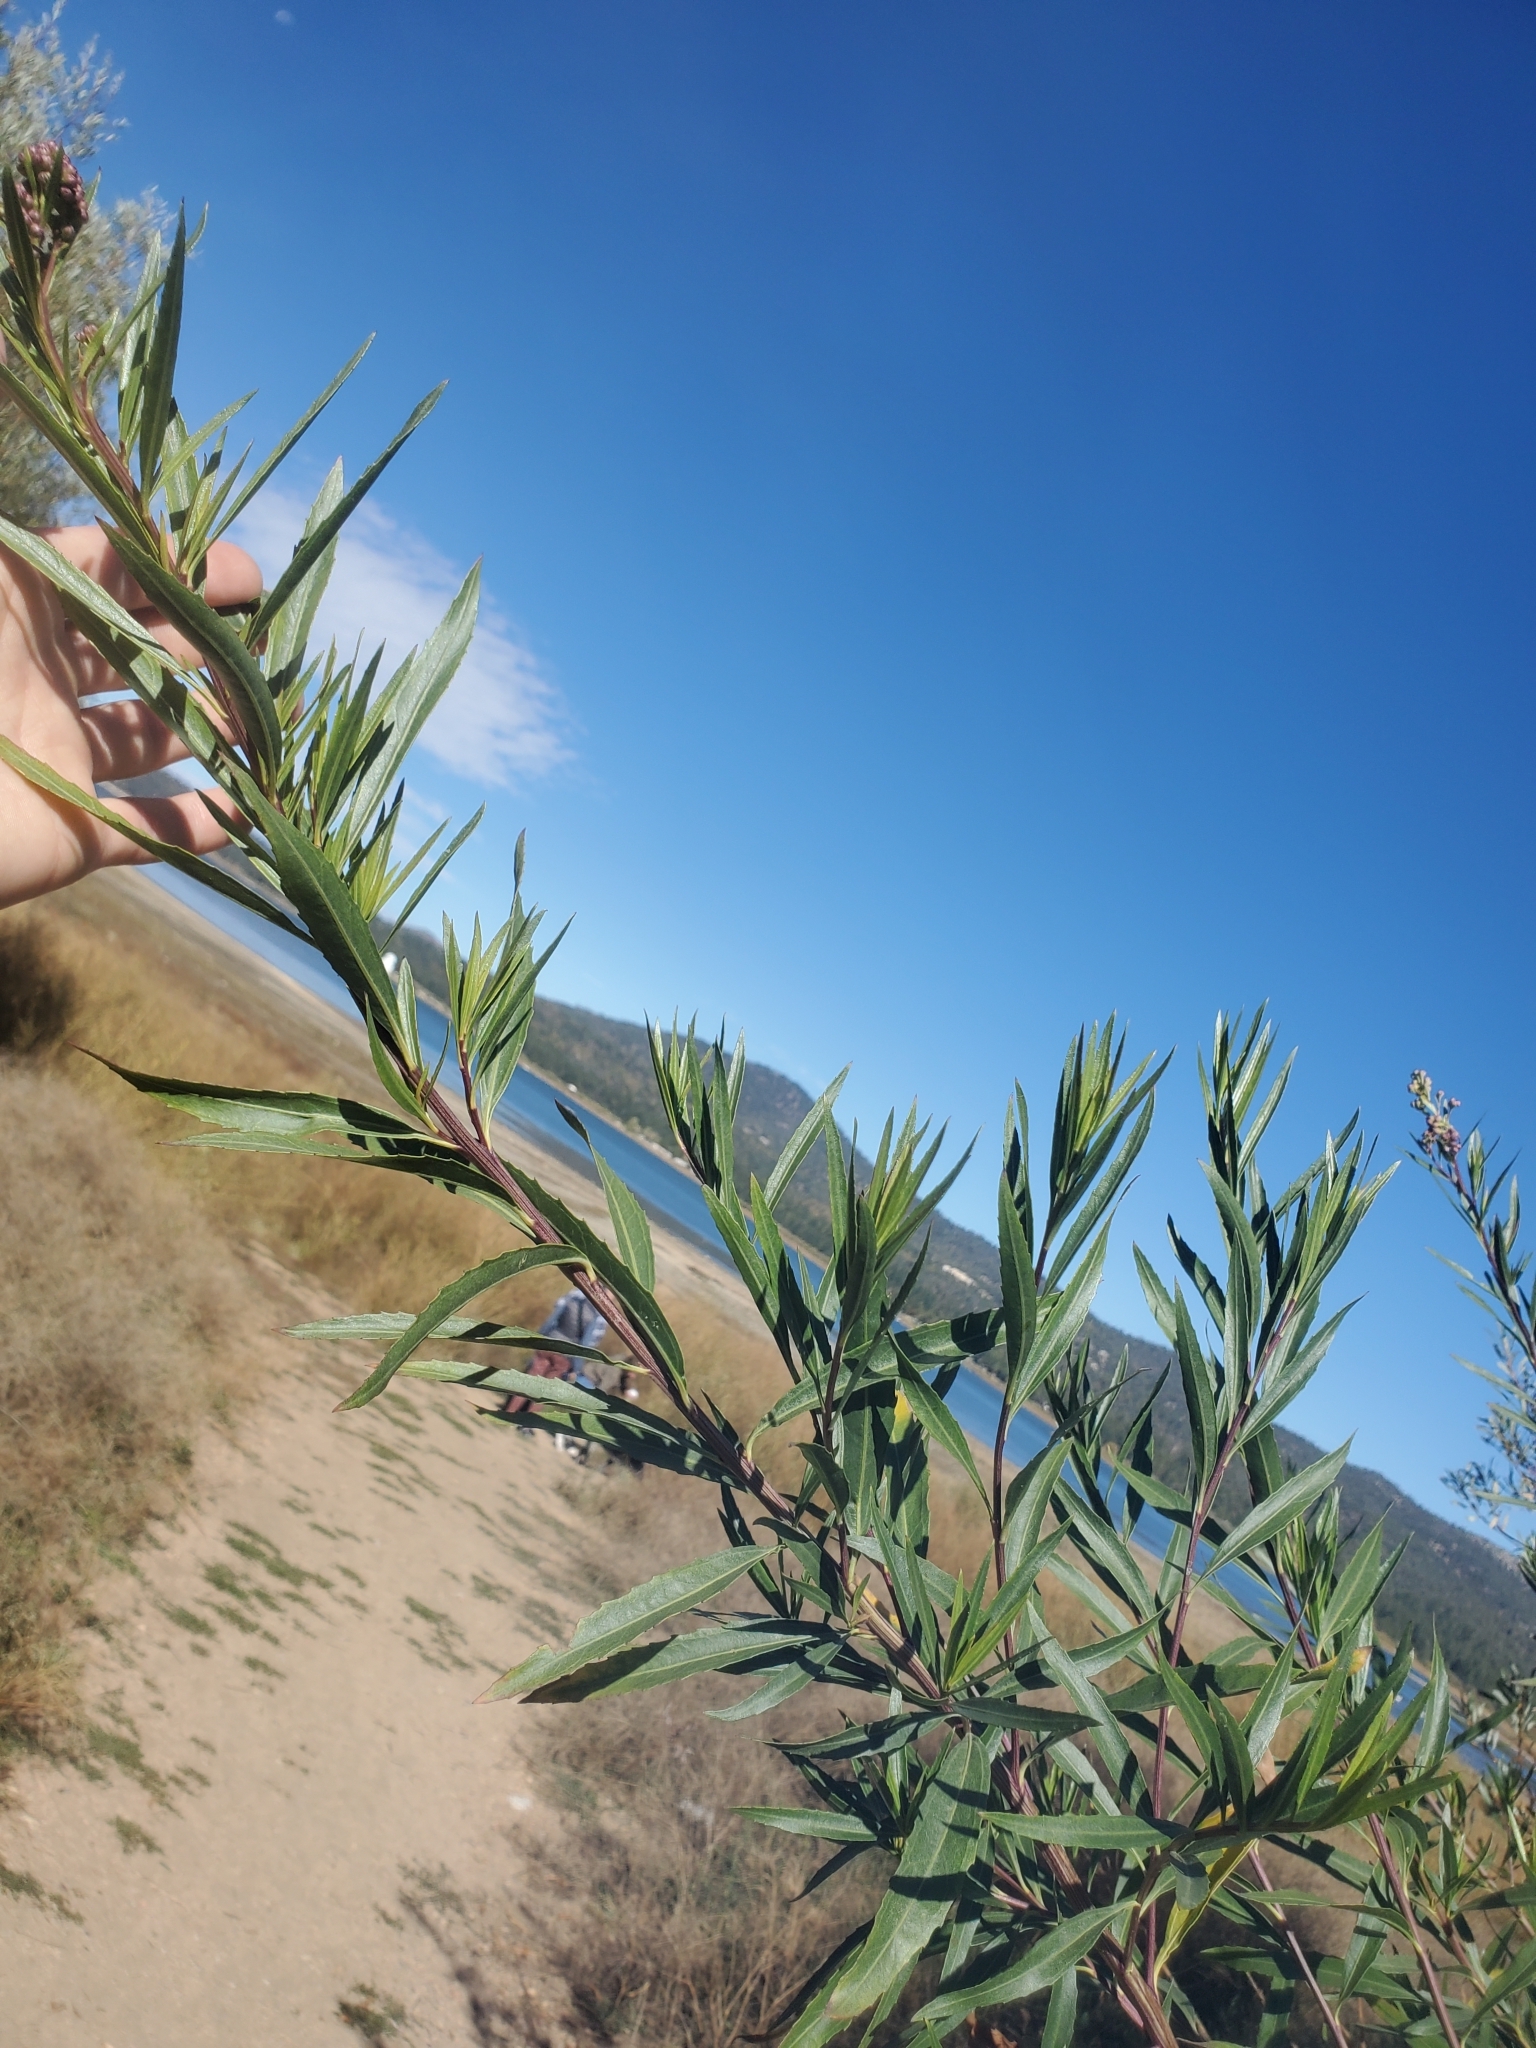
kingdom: Plantae
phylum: Tracheophyta
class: Magnoliopsida
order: Asterales
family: Asteraceae
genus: Baccharis
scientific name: Baccharis salicifolia
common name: Sticky baccharis
